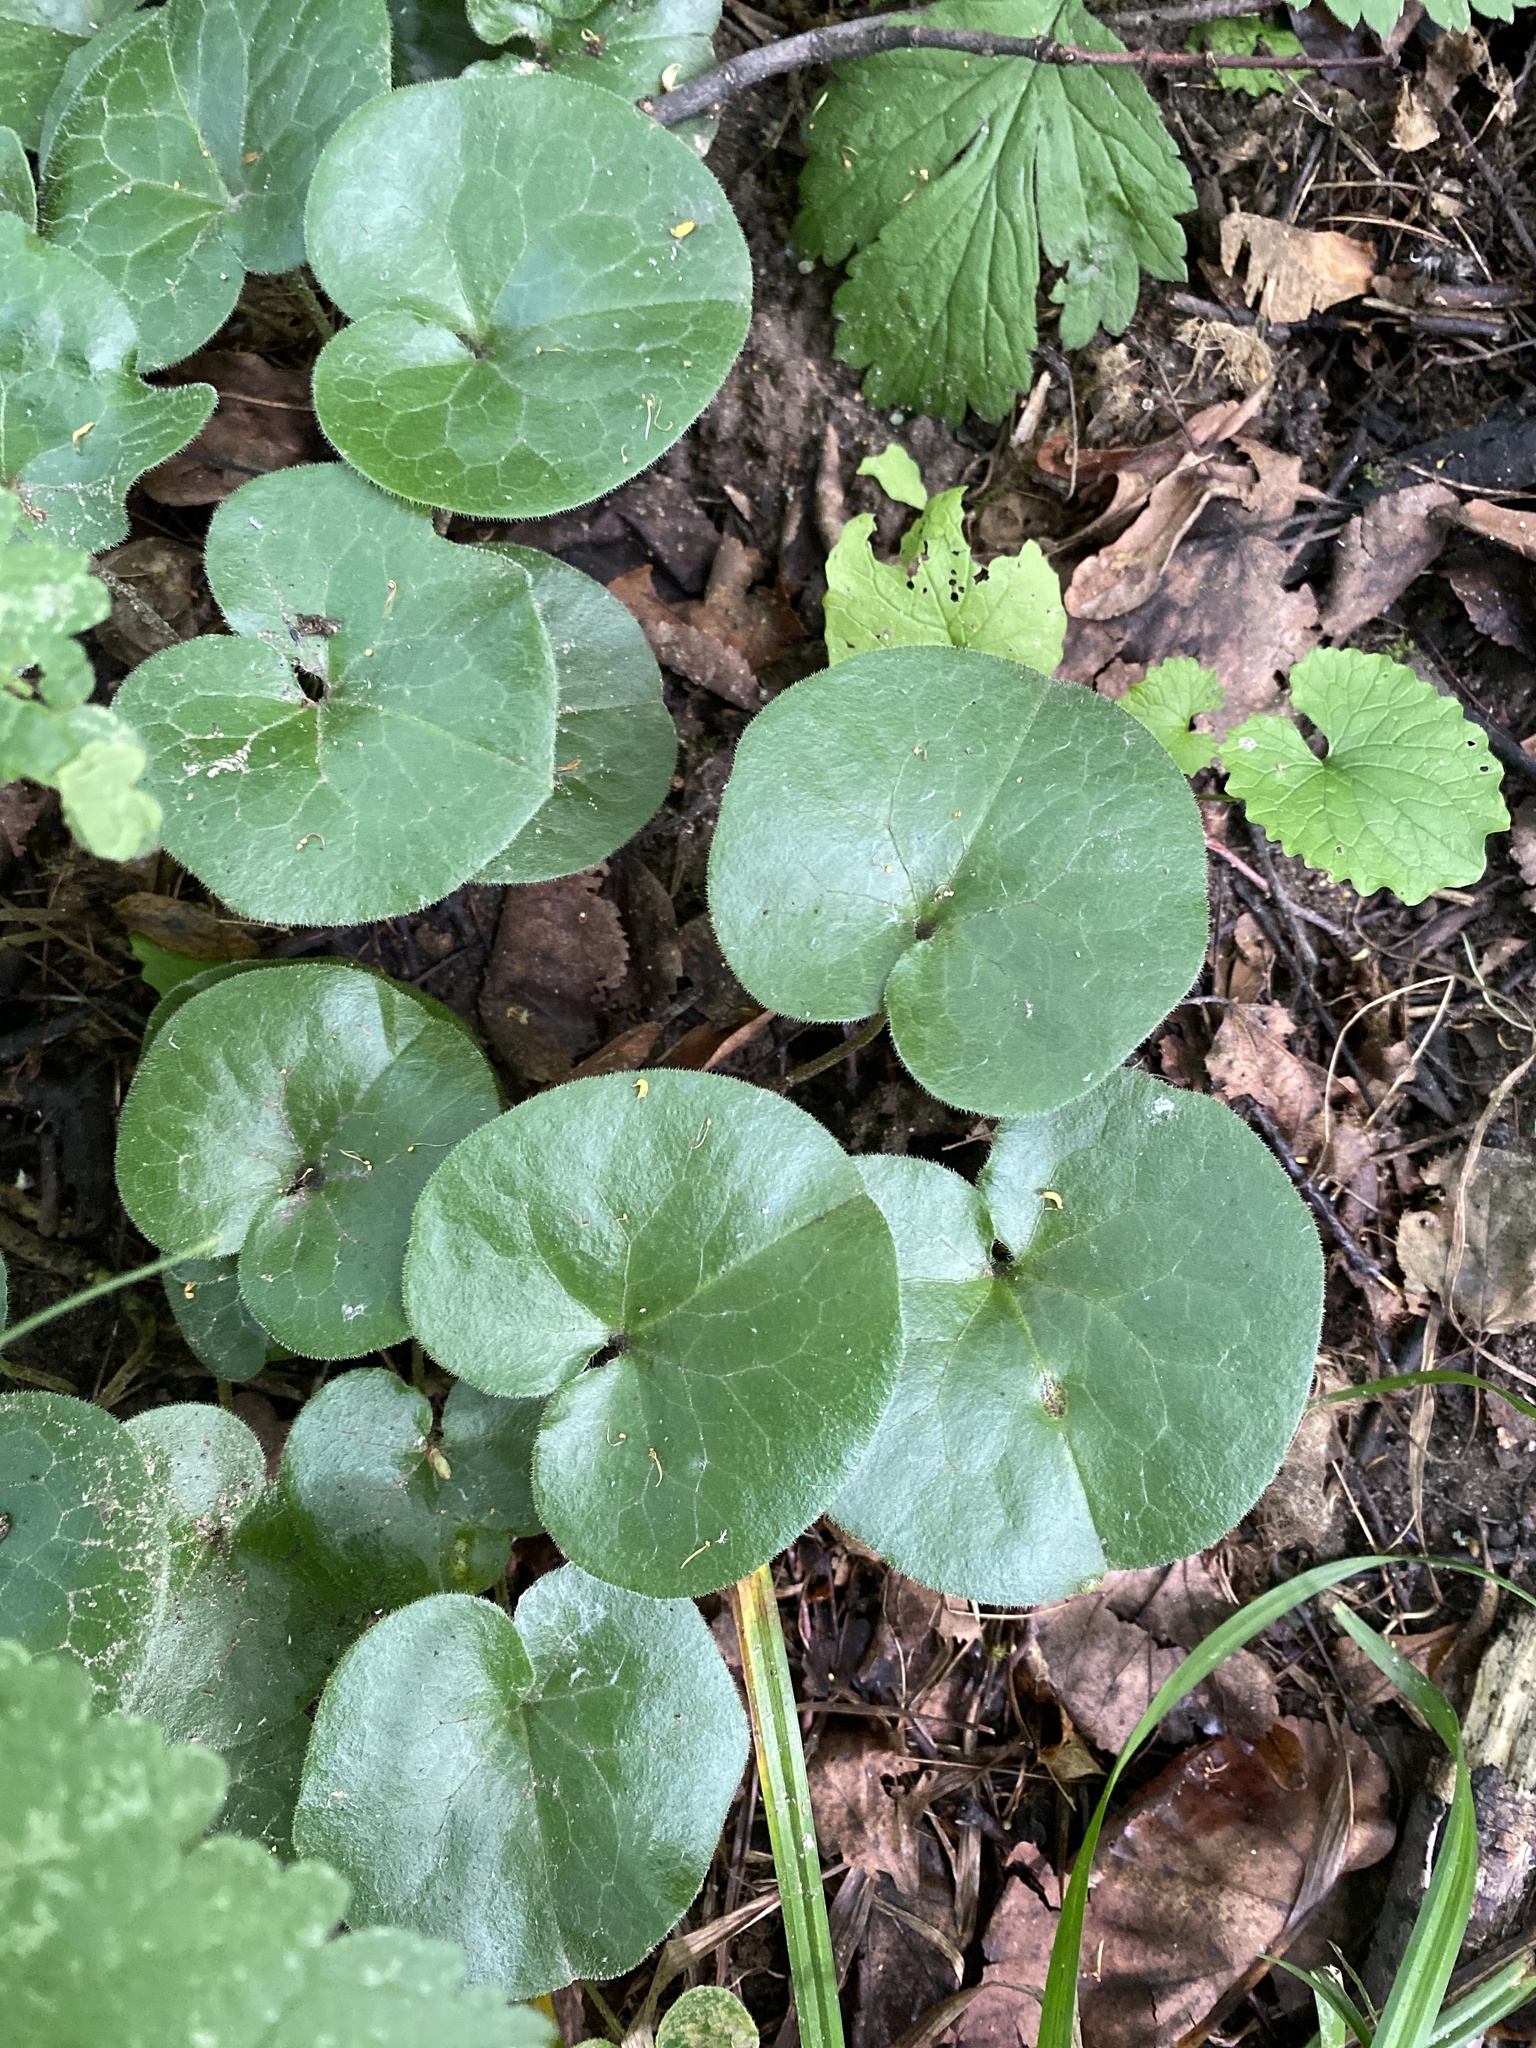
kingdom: Plantae
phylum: Tracheophyta
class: Magnoliopsida
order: Piperales
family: Aristolochiaceae
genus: Asarum
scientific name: Asarum europaeum
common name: Asarabacca
